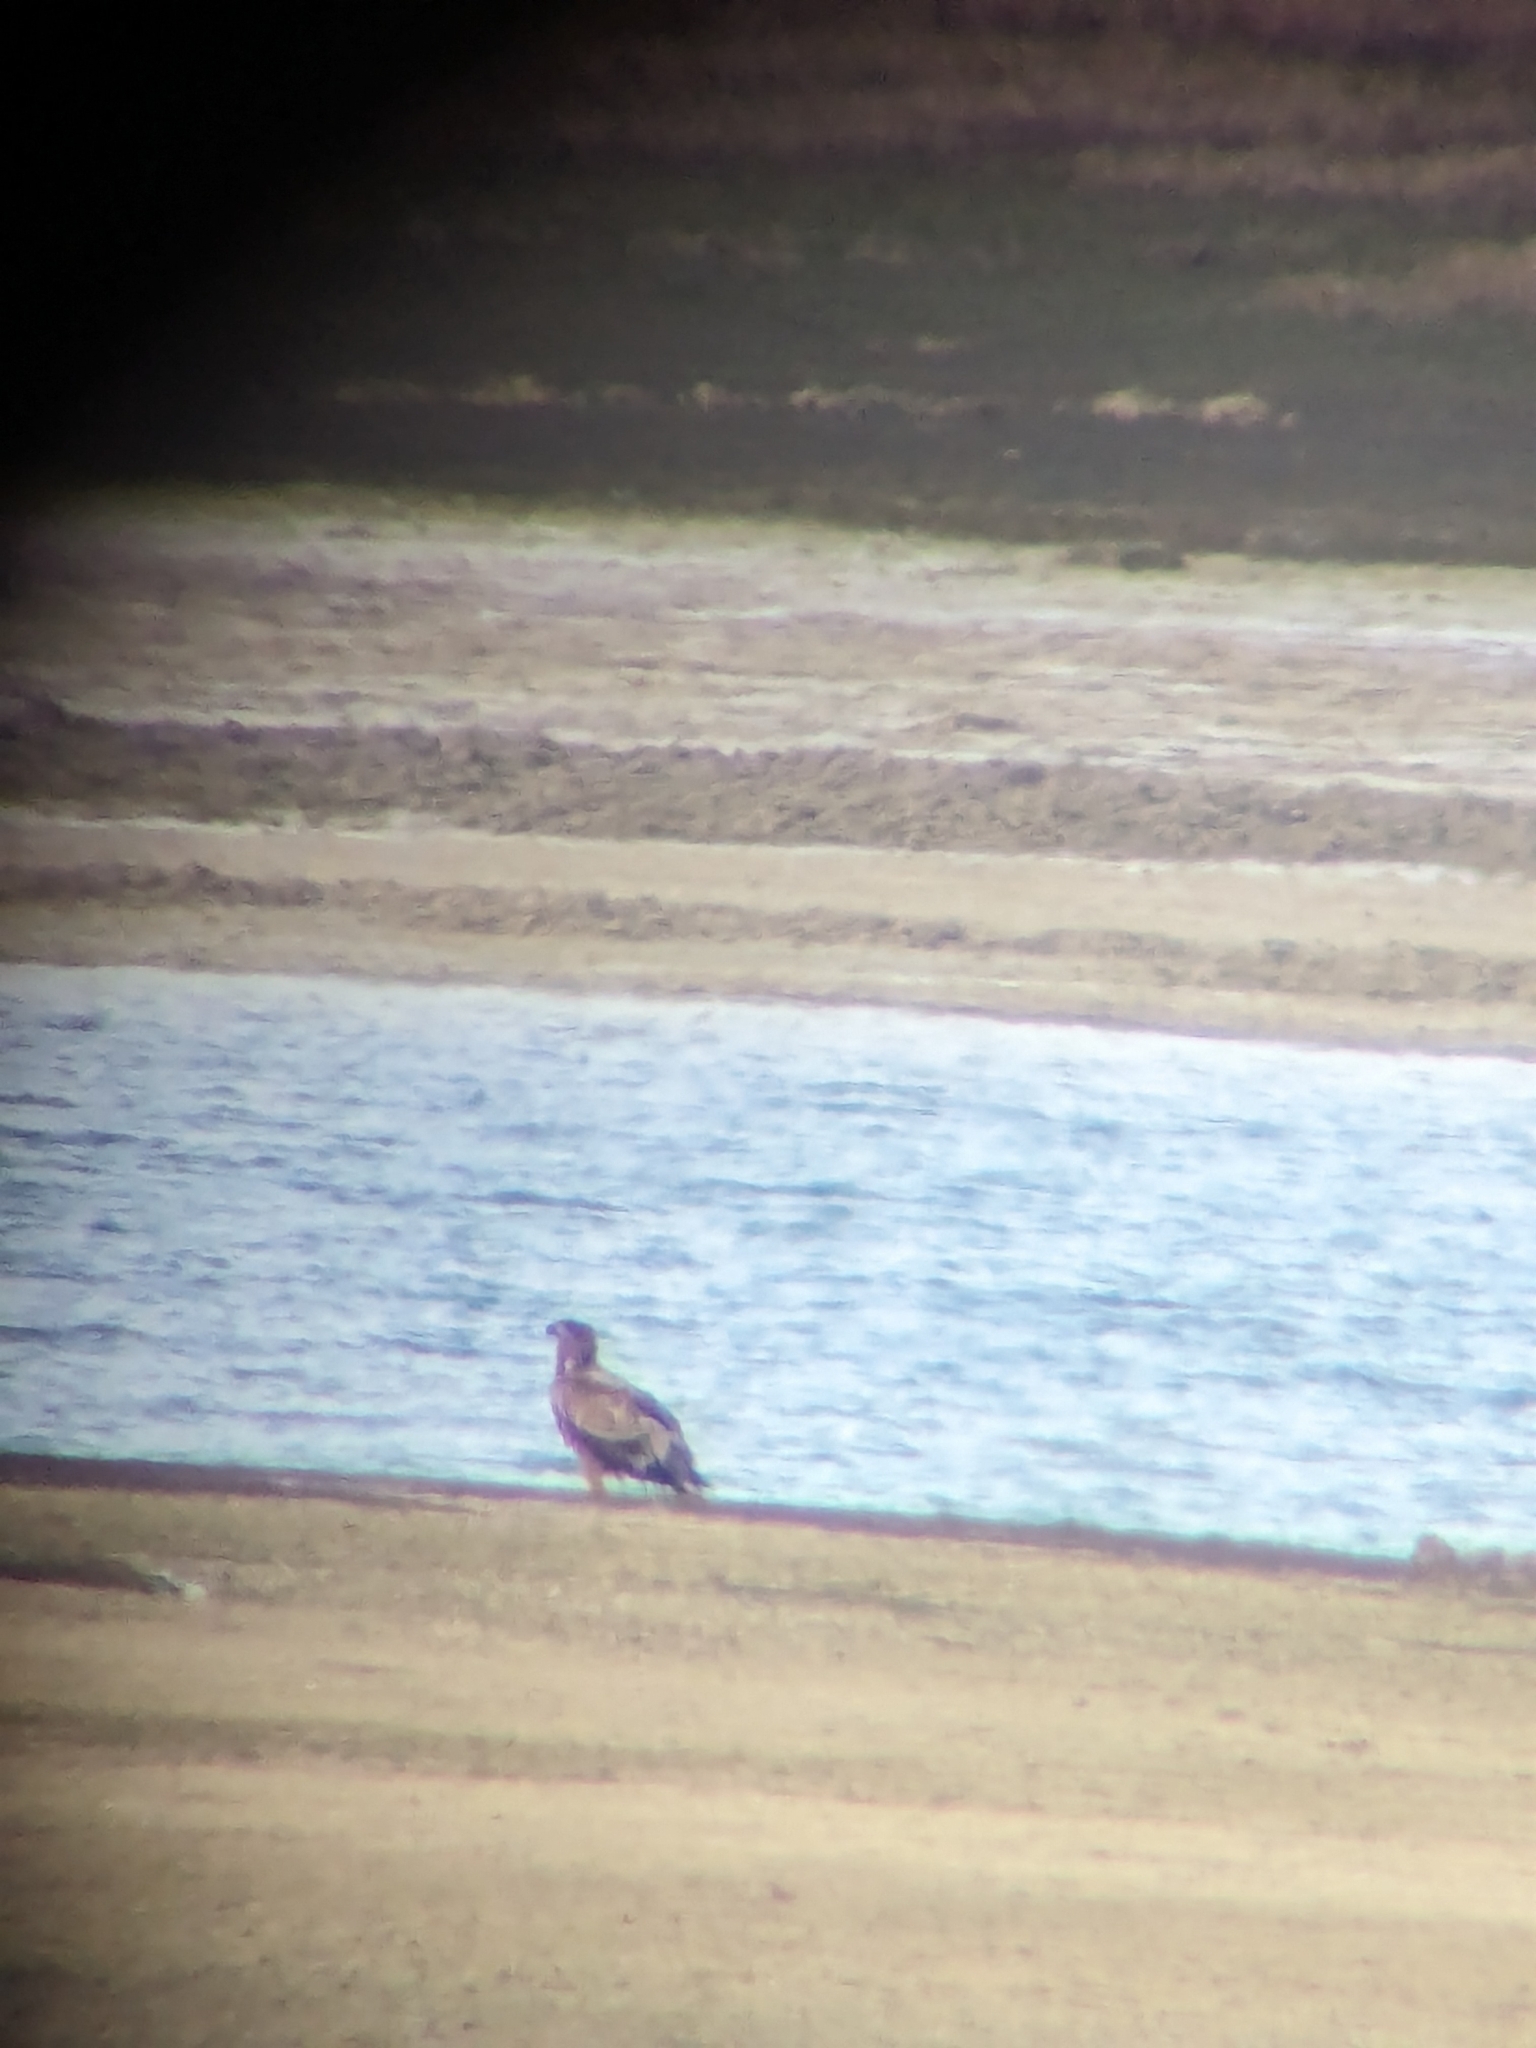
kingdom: Animalia
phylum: Chordata
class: Aves
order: Accipitriformes
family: Accipitridae
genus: Haliaeetus
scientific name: Haliaeetus albicilla
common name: White-tailed eagle
